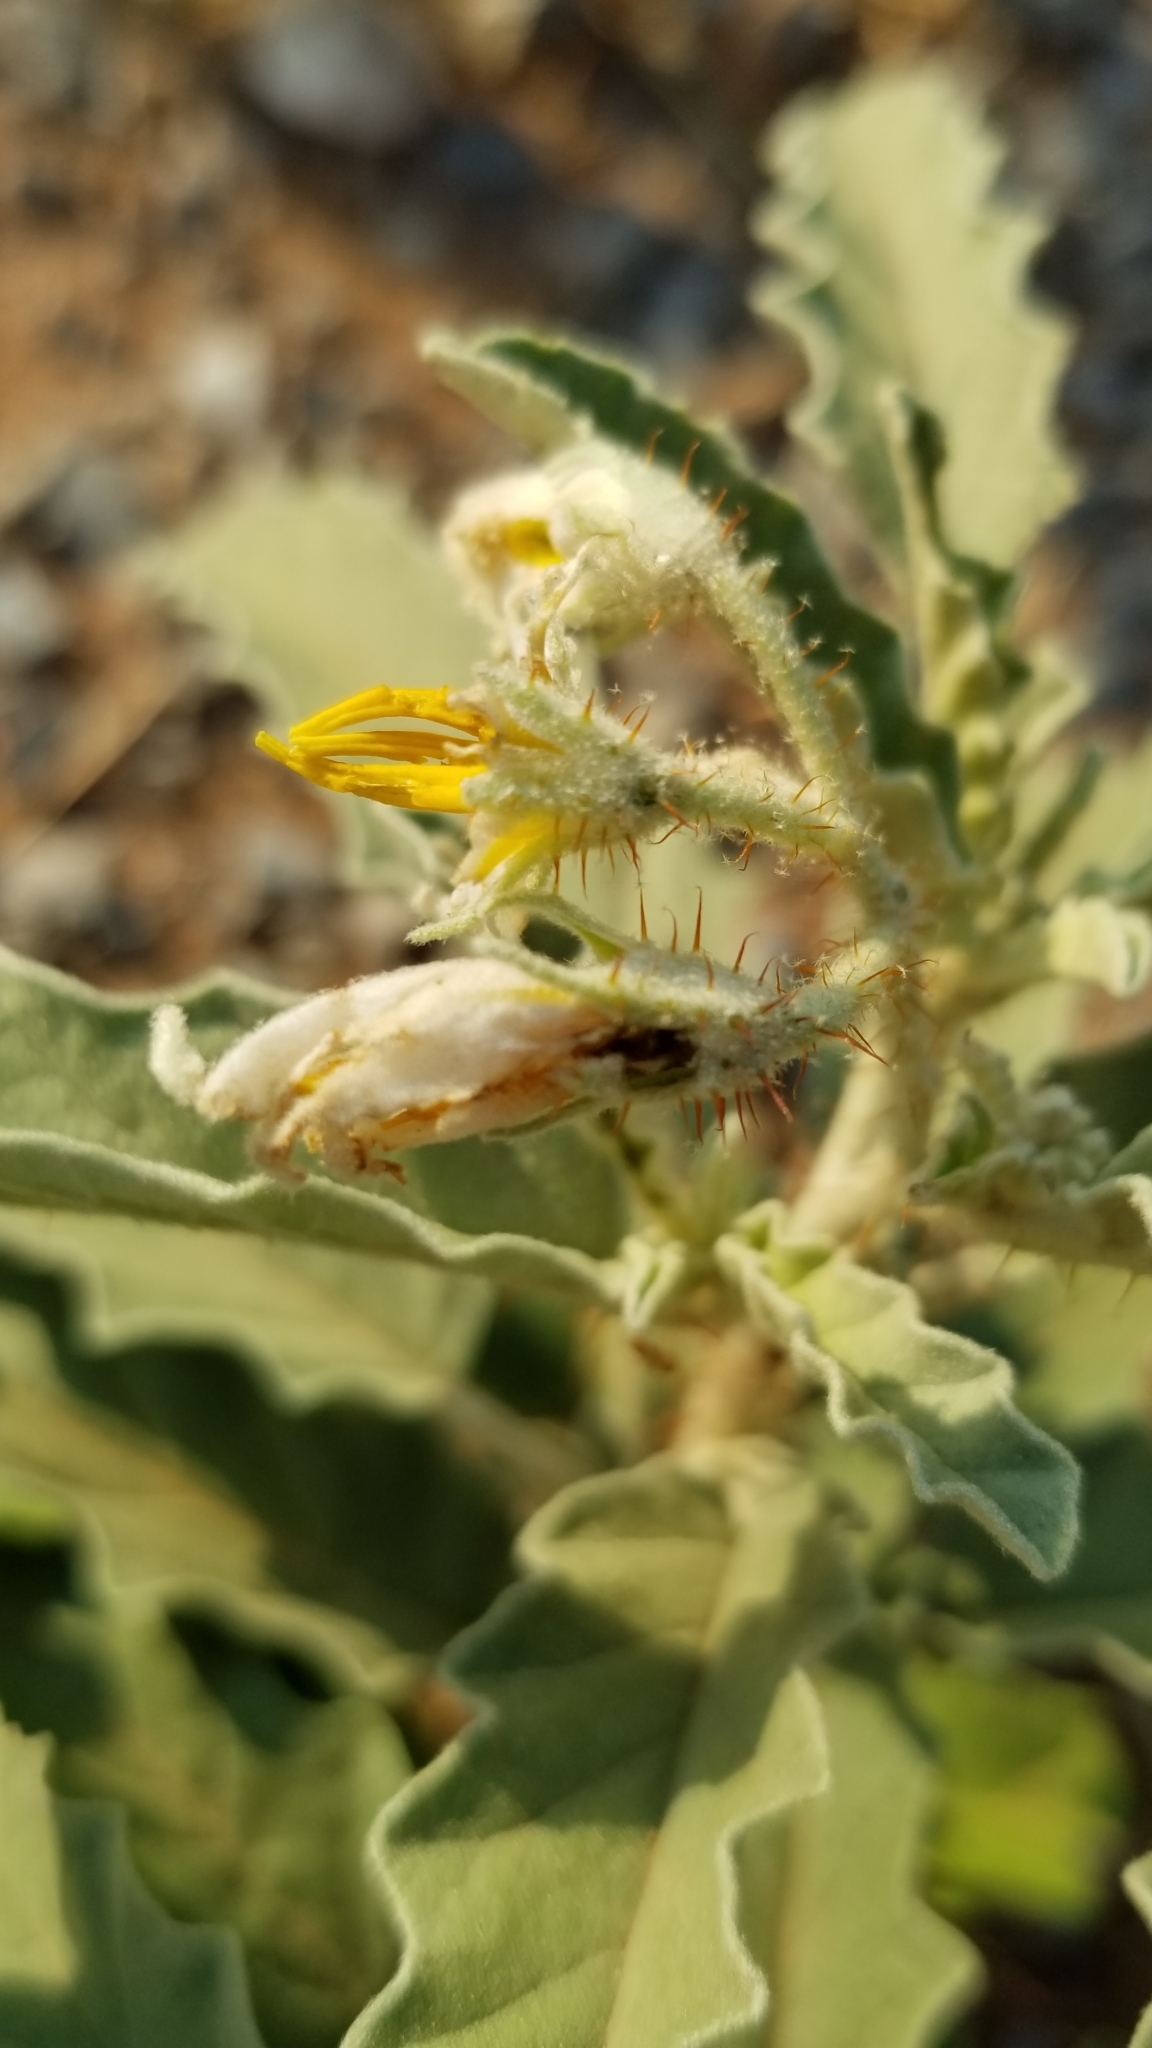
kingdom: Plantae
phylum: Tracheophyta
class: Magnoliopsida
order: Solanales
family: Solanaceae
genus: Solanum
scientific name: Solanum elaeagnifolium
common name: Silverleaf nightshade
